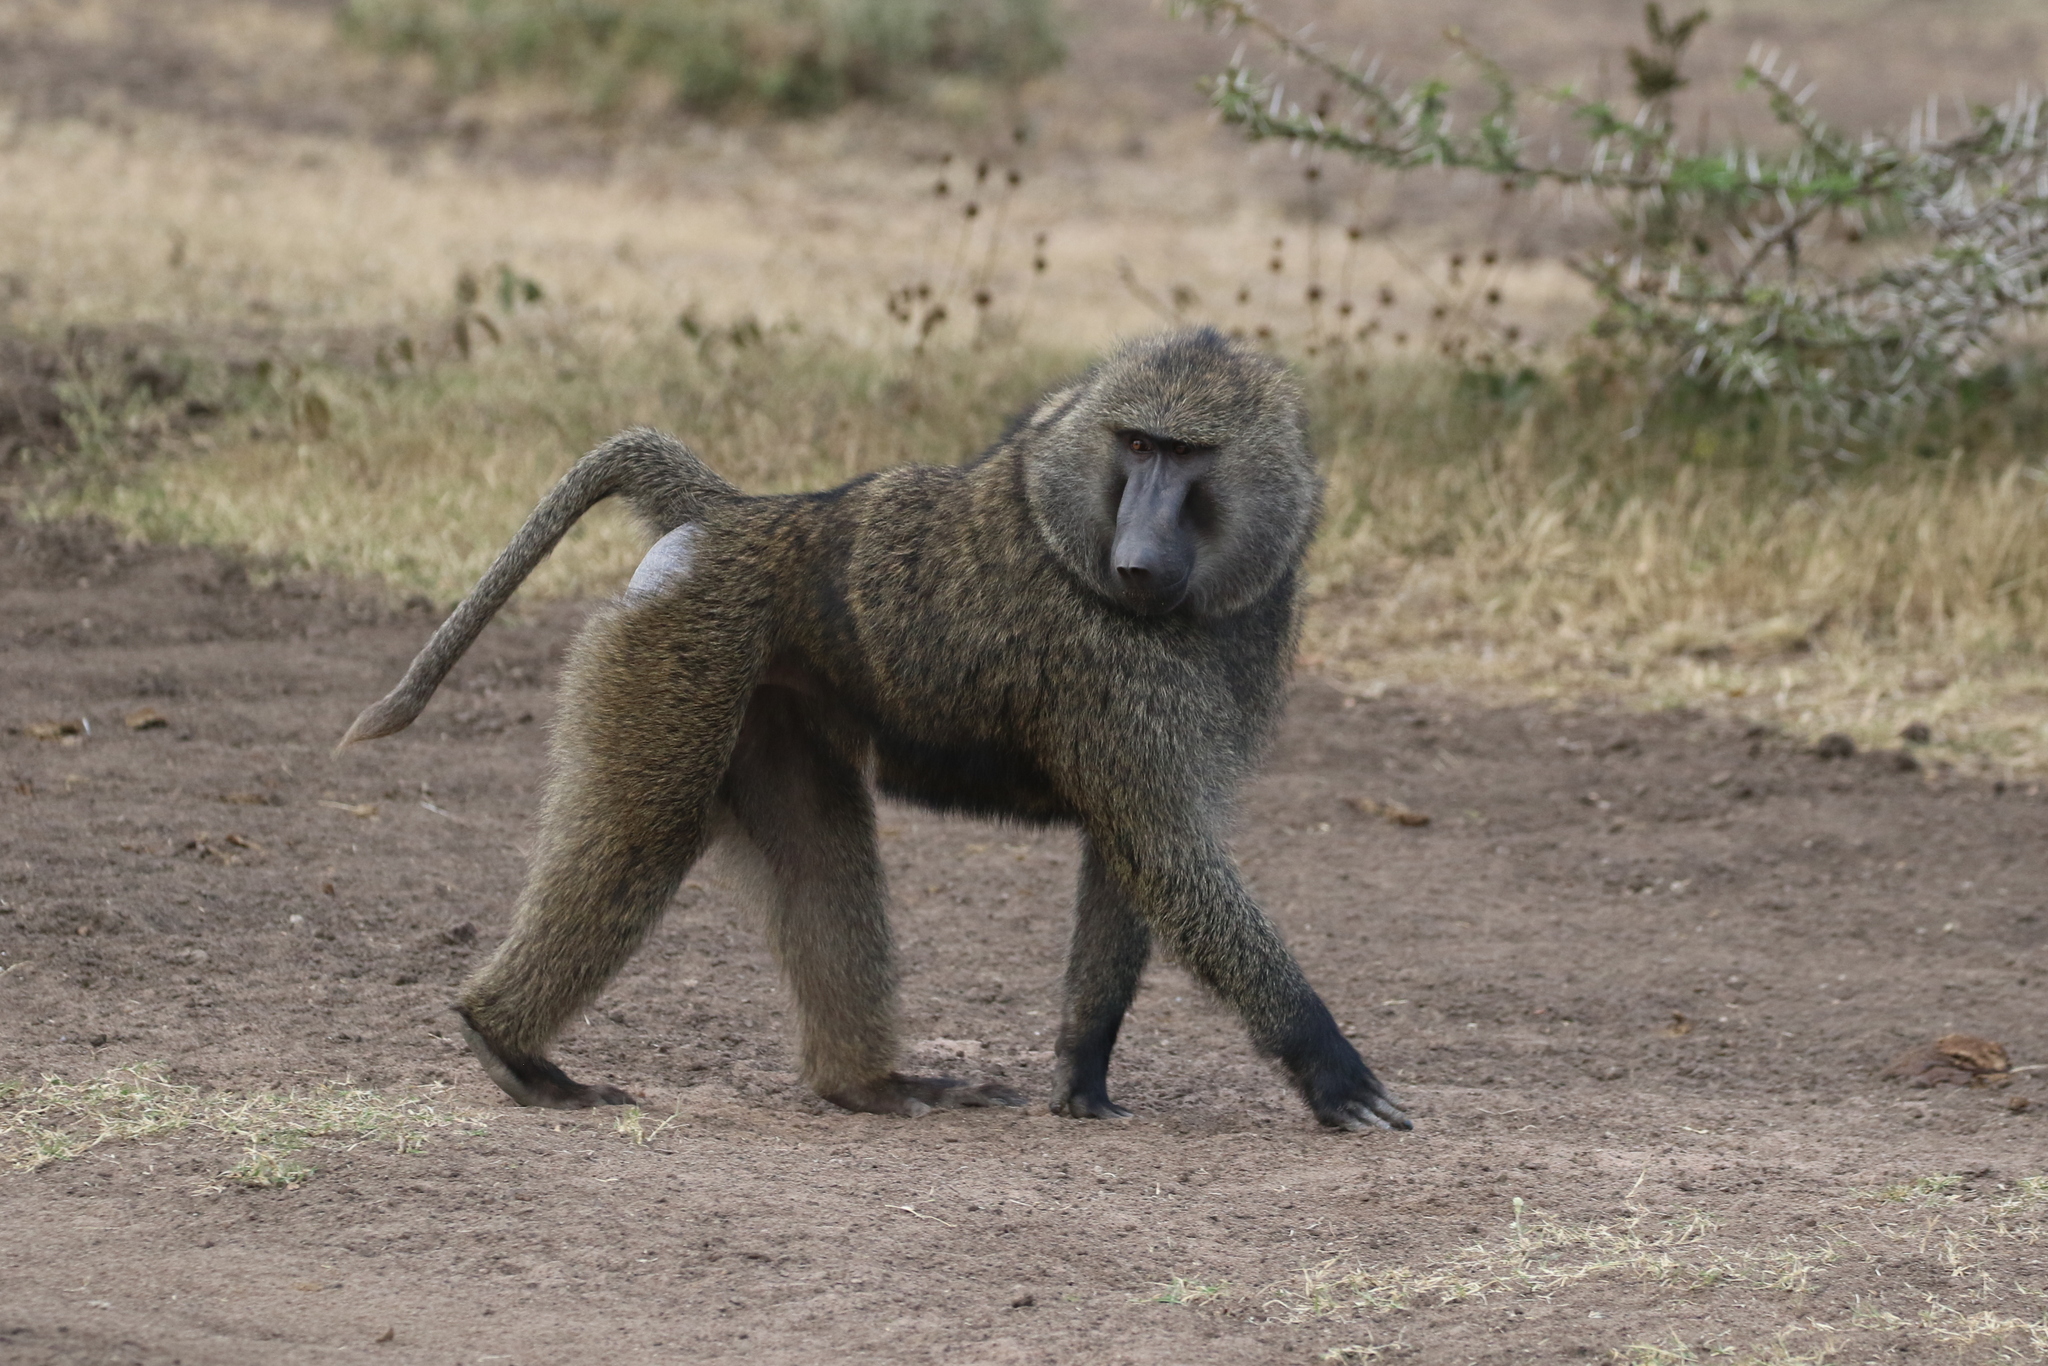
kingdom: Animalia
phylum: Chordata
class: Mammalia
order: Primates
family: Cercopithecidae
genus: Papio
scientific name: Papio anubis
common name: Olive baboon
